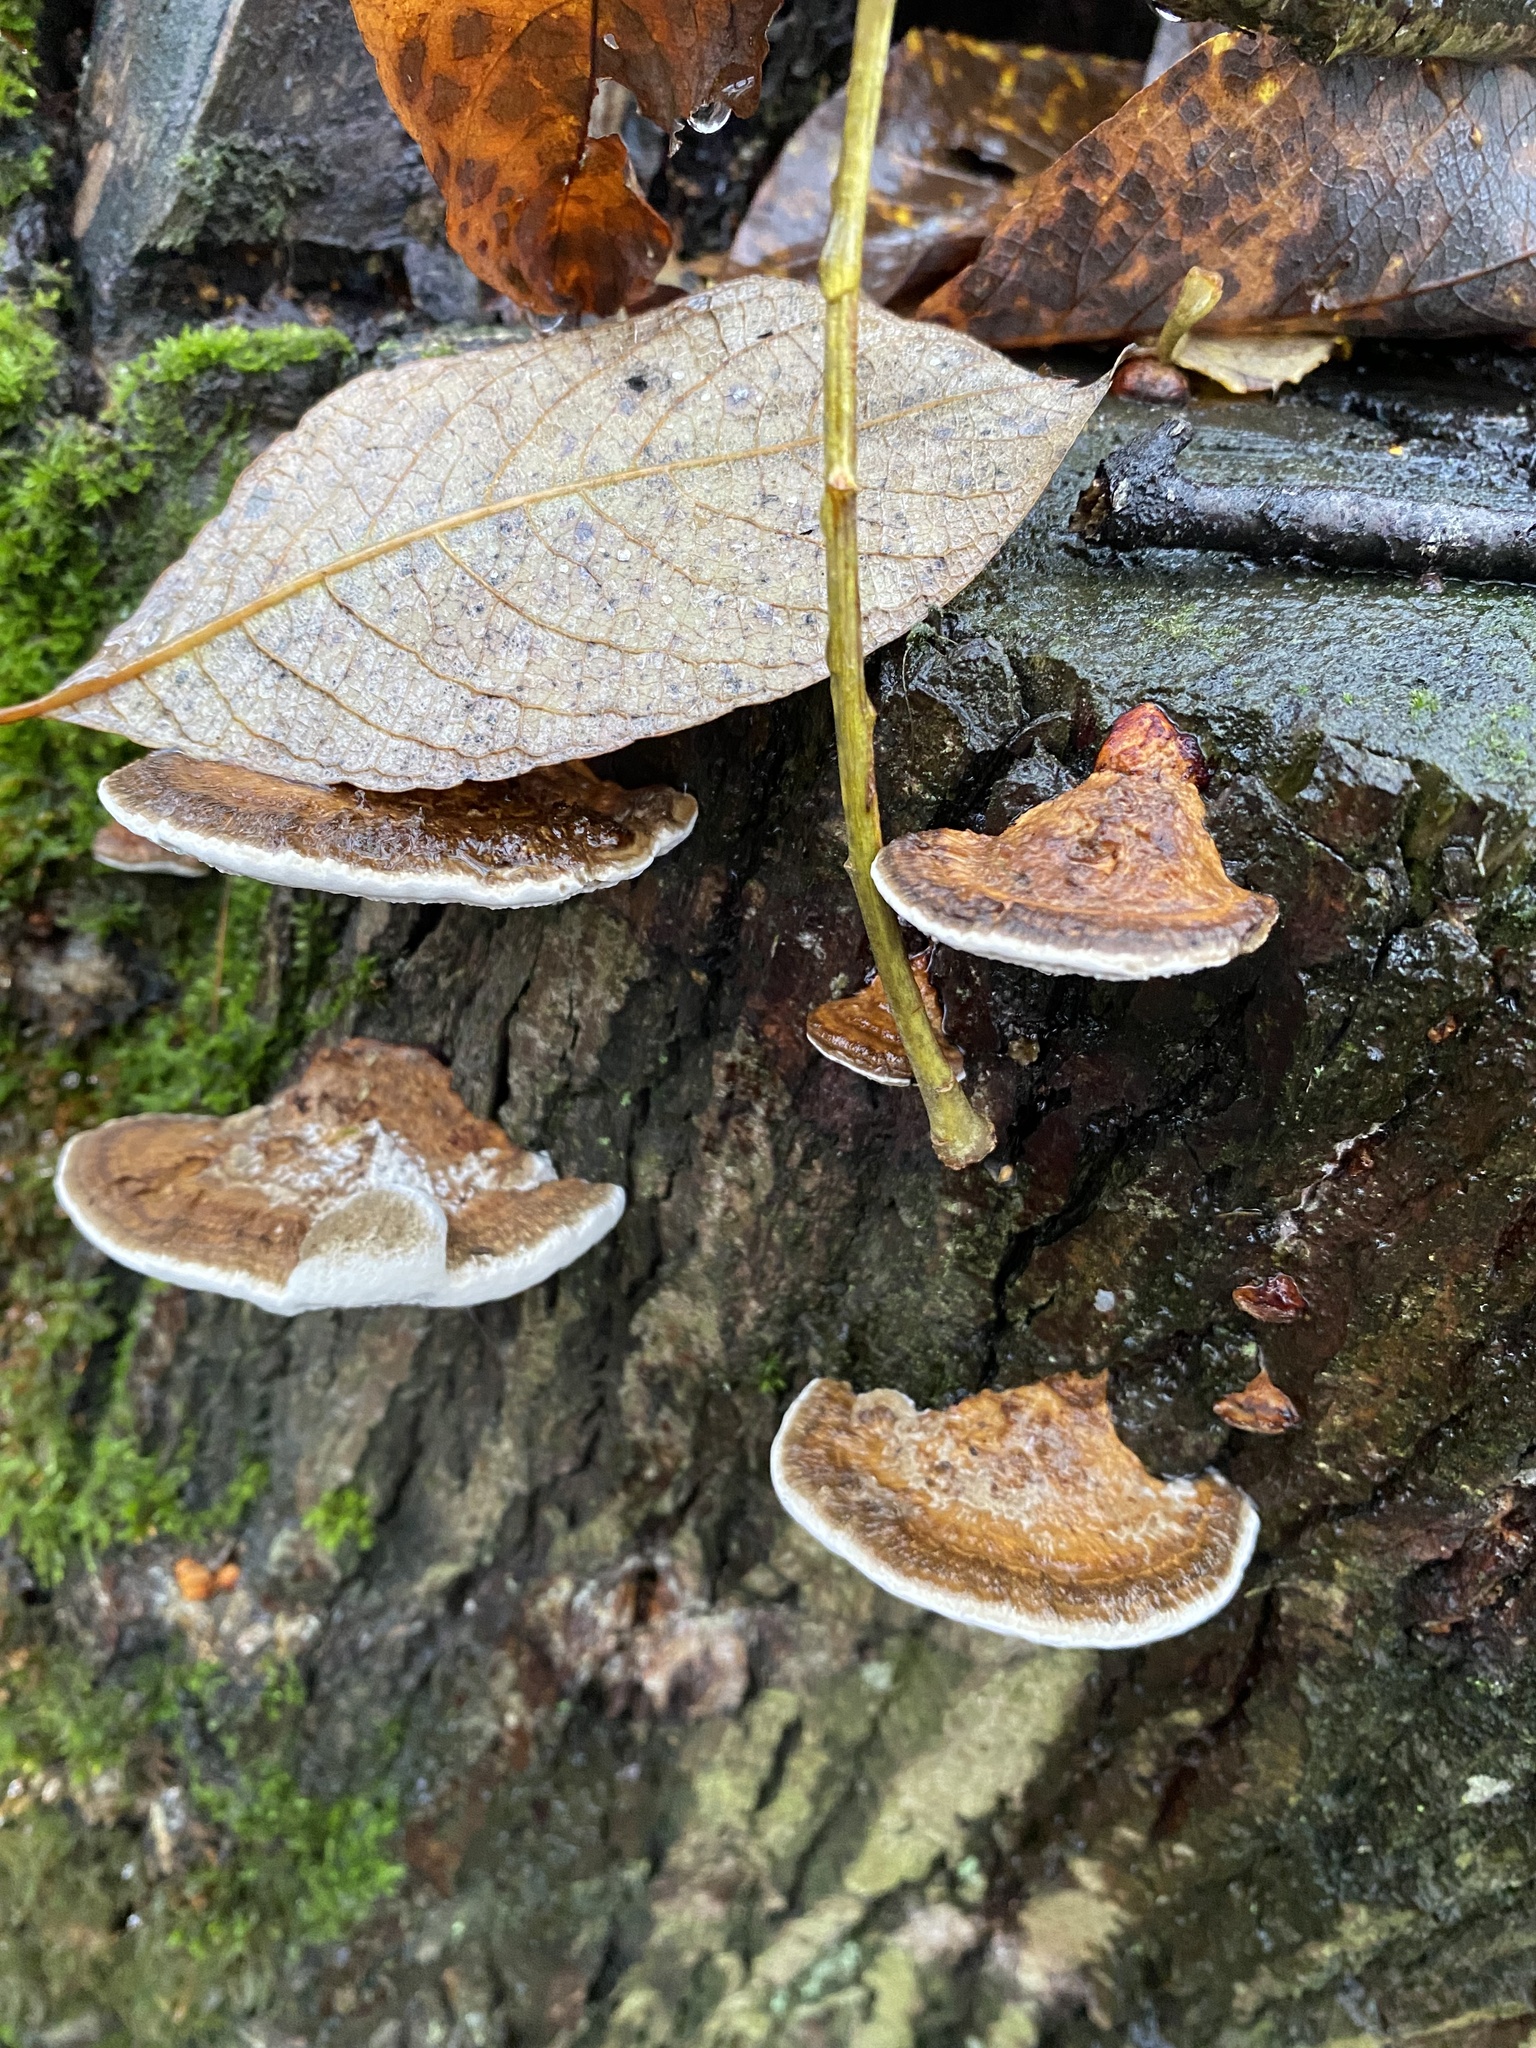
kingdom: Fungi
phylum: Basidiomycota
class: Agaricomycetes
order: Polyporales
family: Polyporaceae
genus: Daedaleopsis
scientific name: Daedaleopsis confragosa
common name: Blushing bracket
